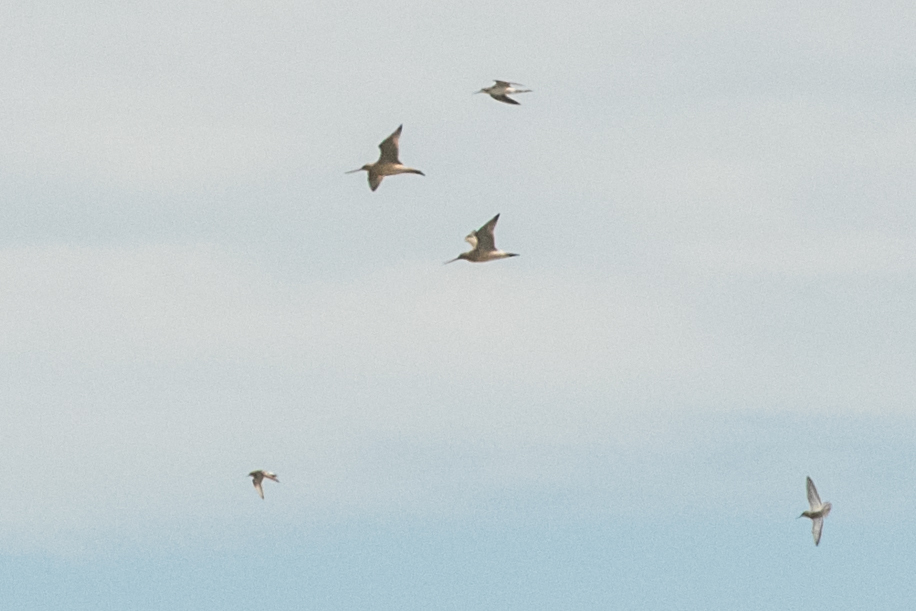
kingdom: Animalia
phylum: Chordata
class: Aves
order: Charadriiformes
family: Scolopacidae
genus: Limosa
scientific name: Limosa lapponica
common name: Bar-tailed godwit
